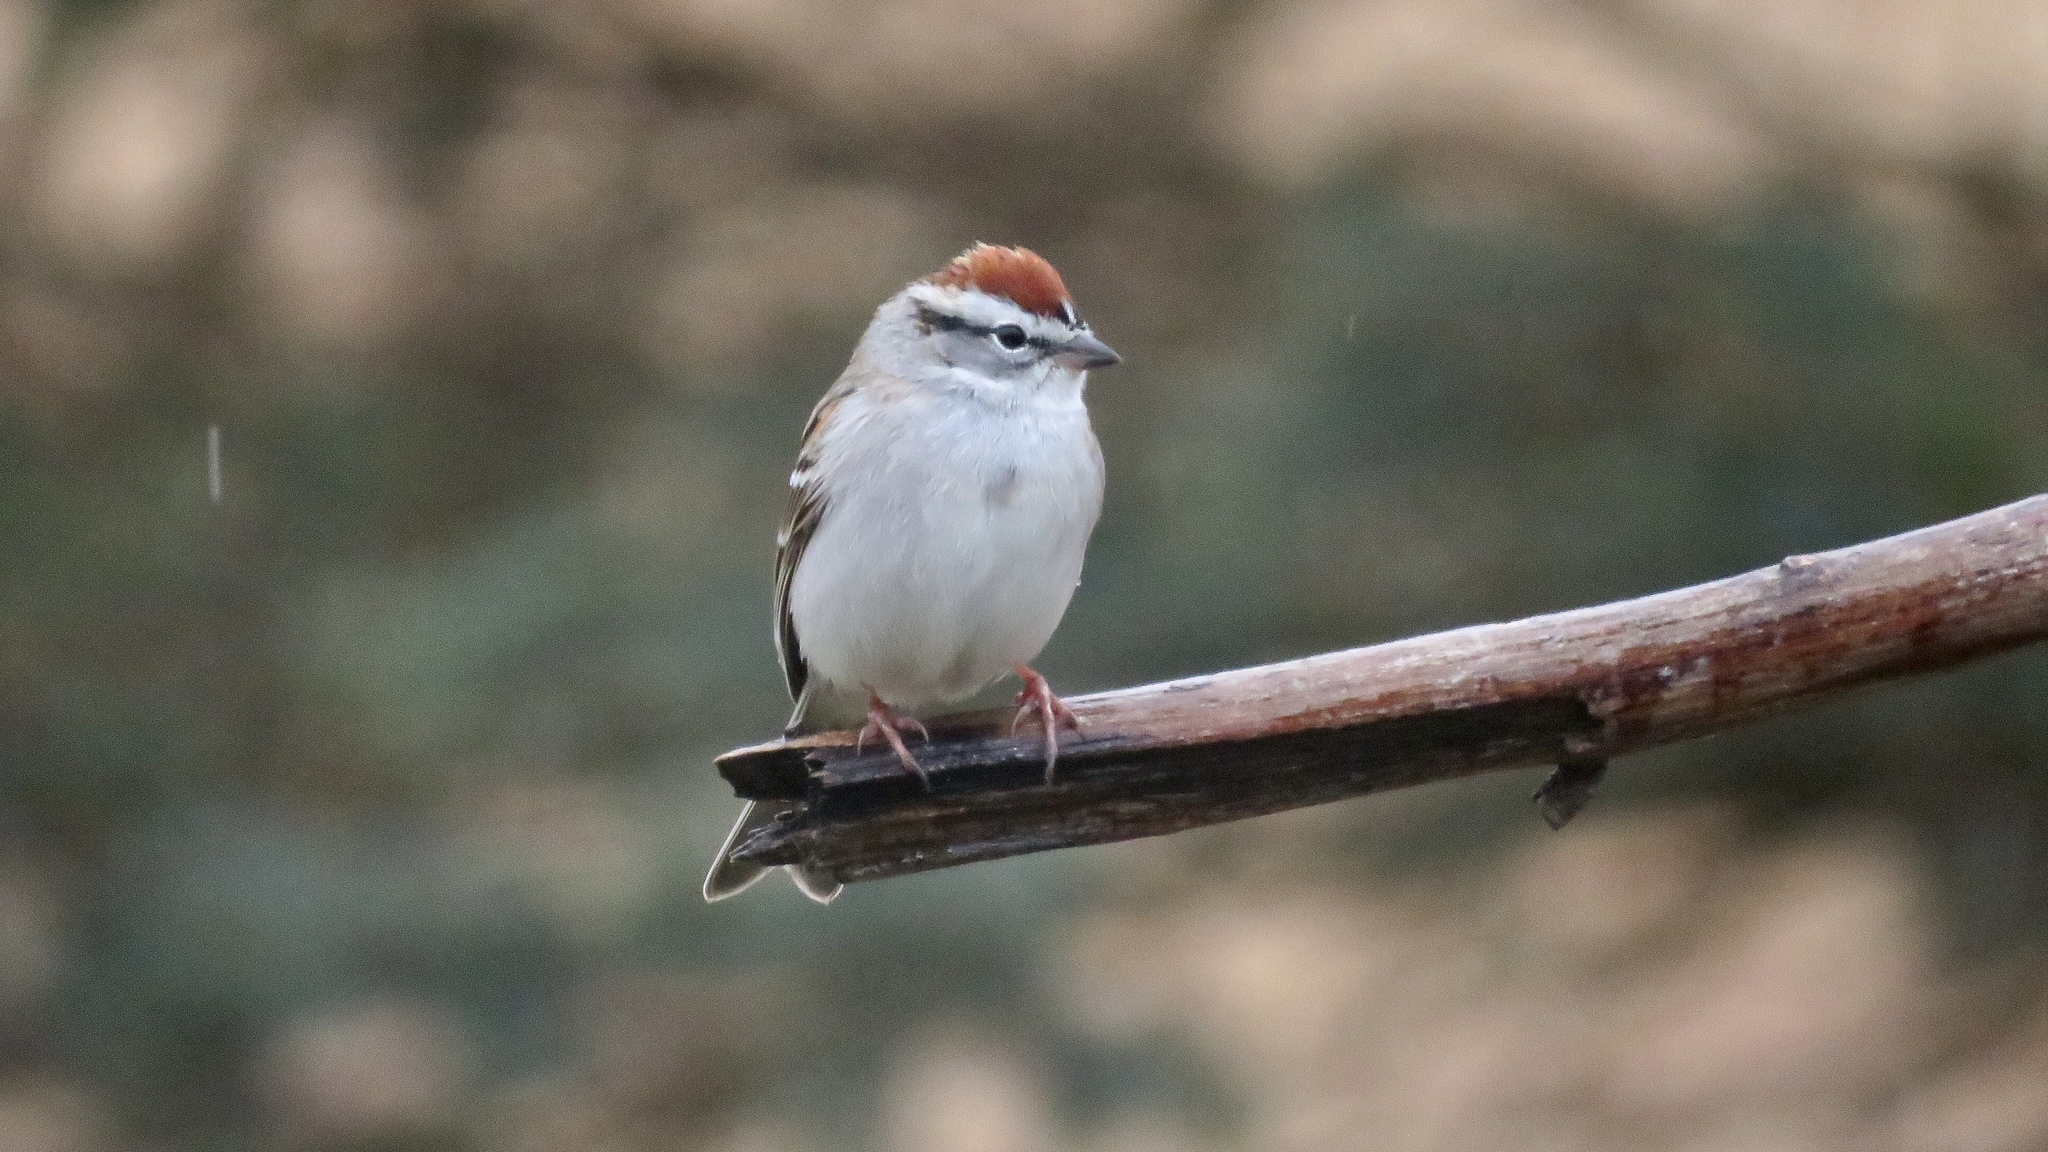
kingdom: Animalia
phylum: Chordata
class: Aves
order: Passeriformes
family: Passerellidae
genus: Spizella
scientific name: Spizella passerina
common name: Chipping sparrow
